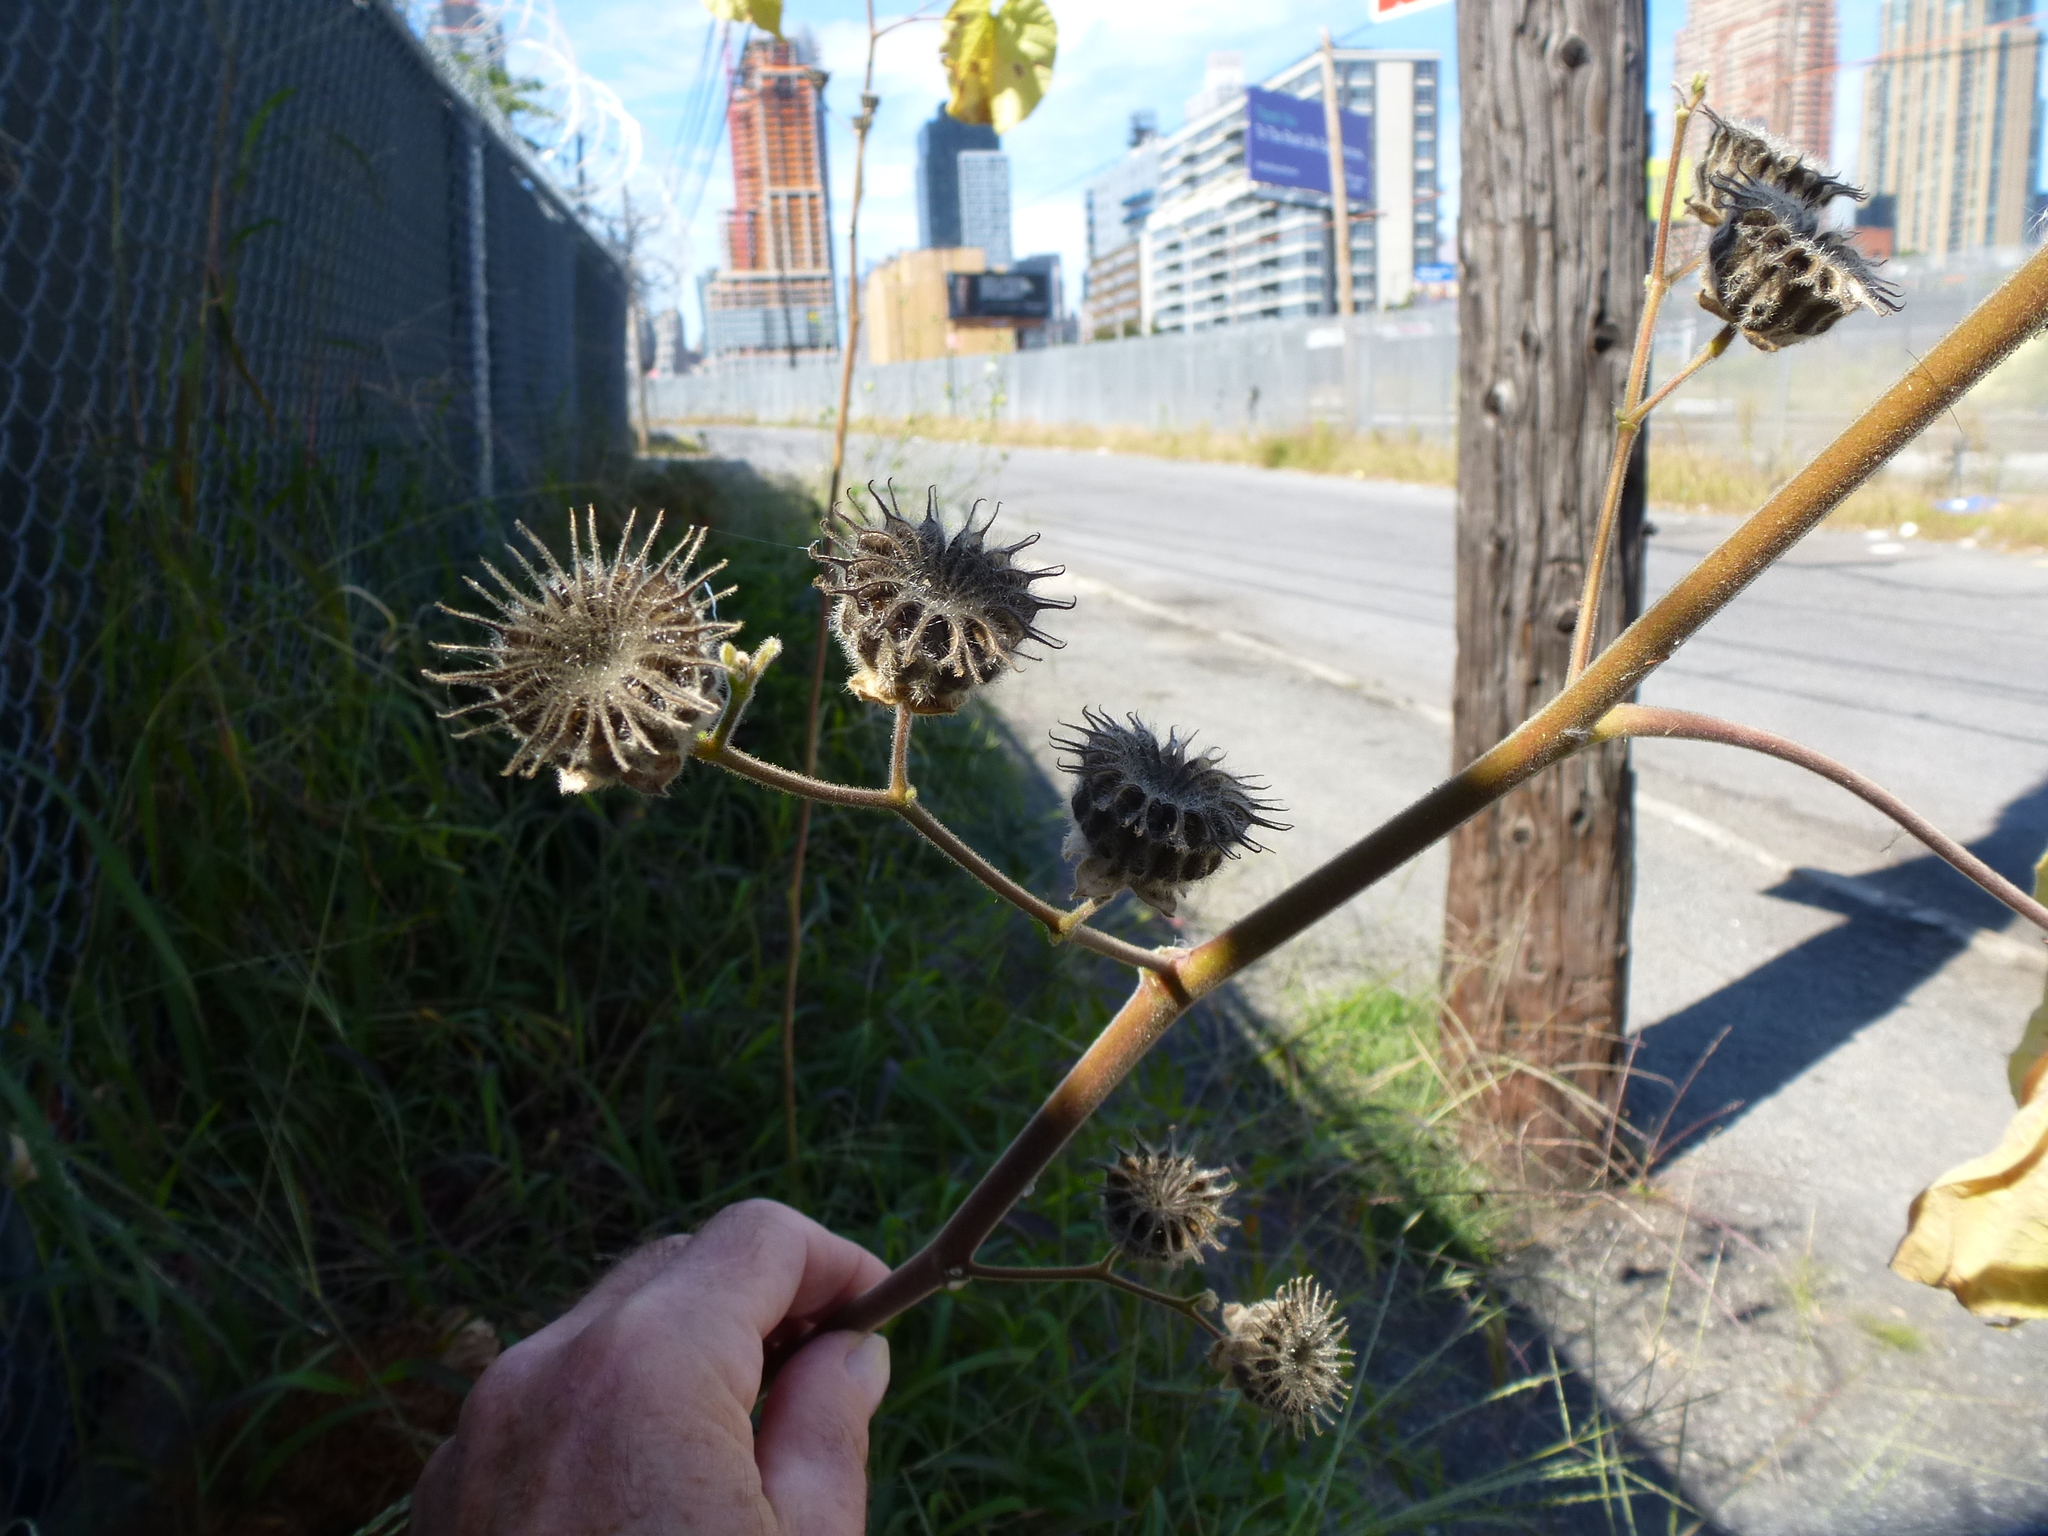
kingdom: Plantae
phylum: Tracheophyta
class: Magnoliopsida
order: Malvales
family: Malvaceae
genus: Abutilon
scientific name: Abutilon theophrasti
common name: Velvetleaf
